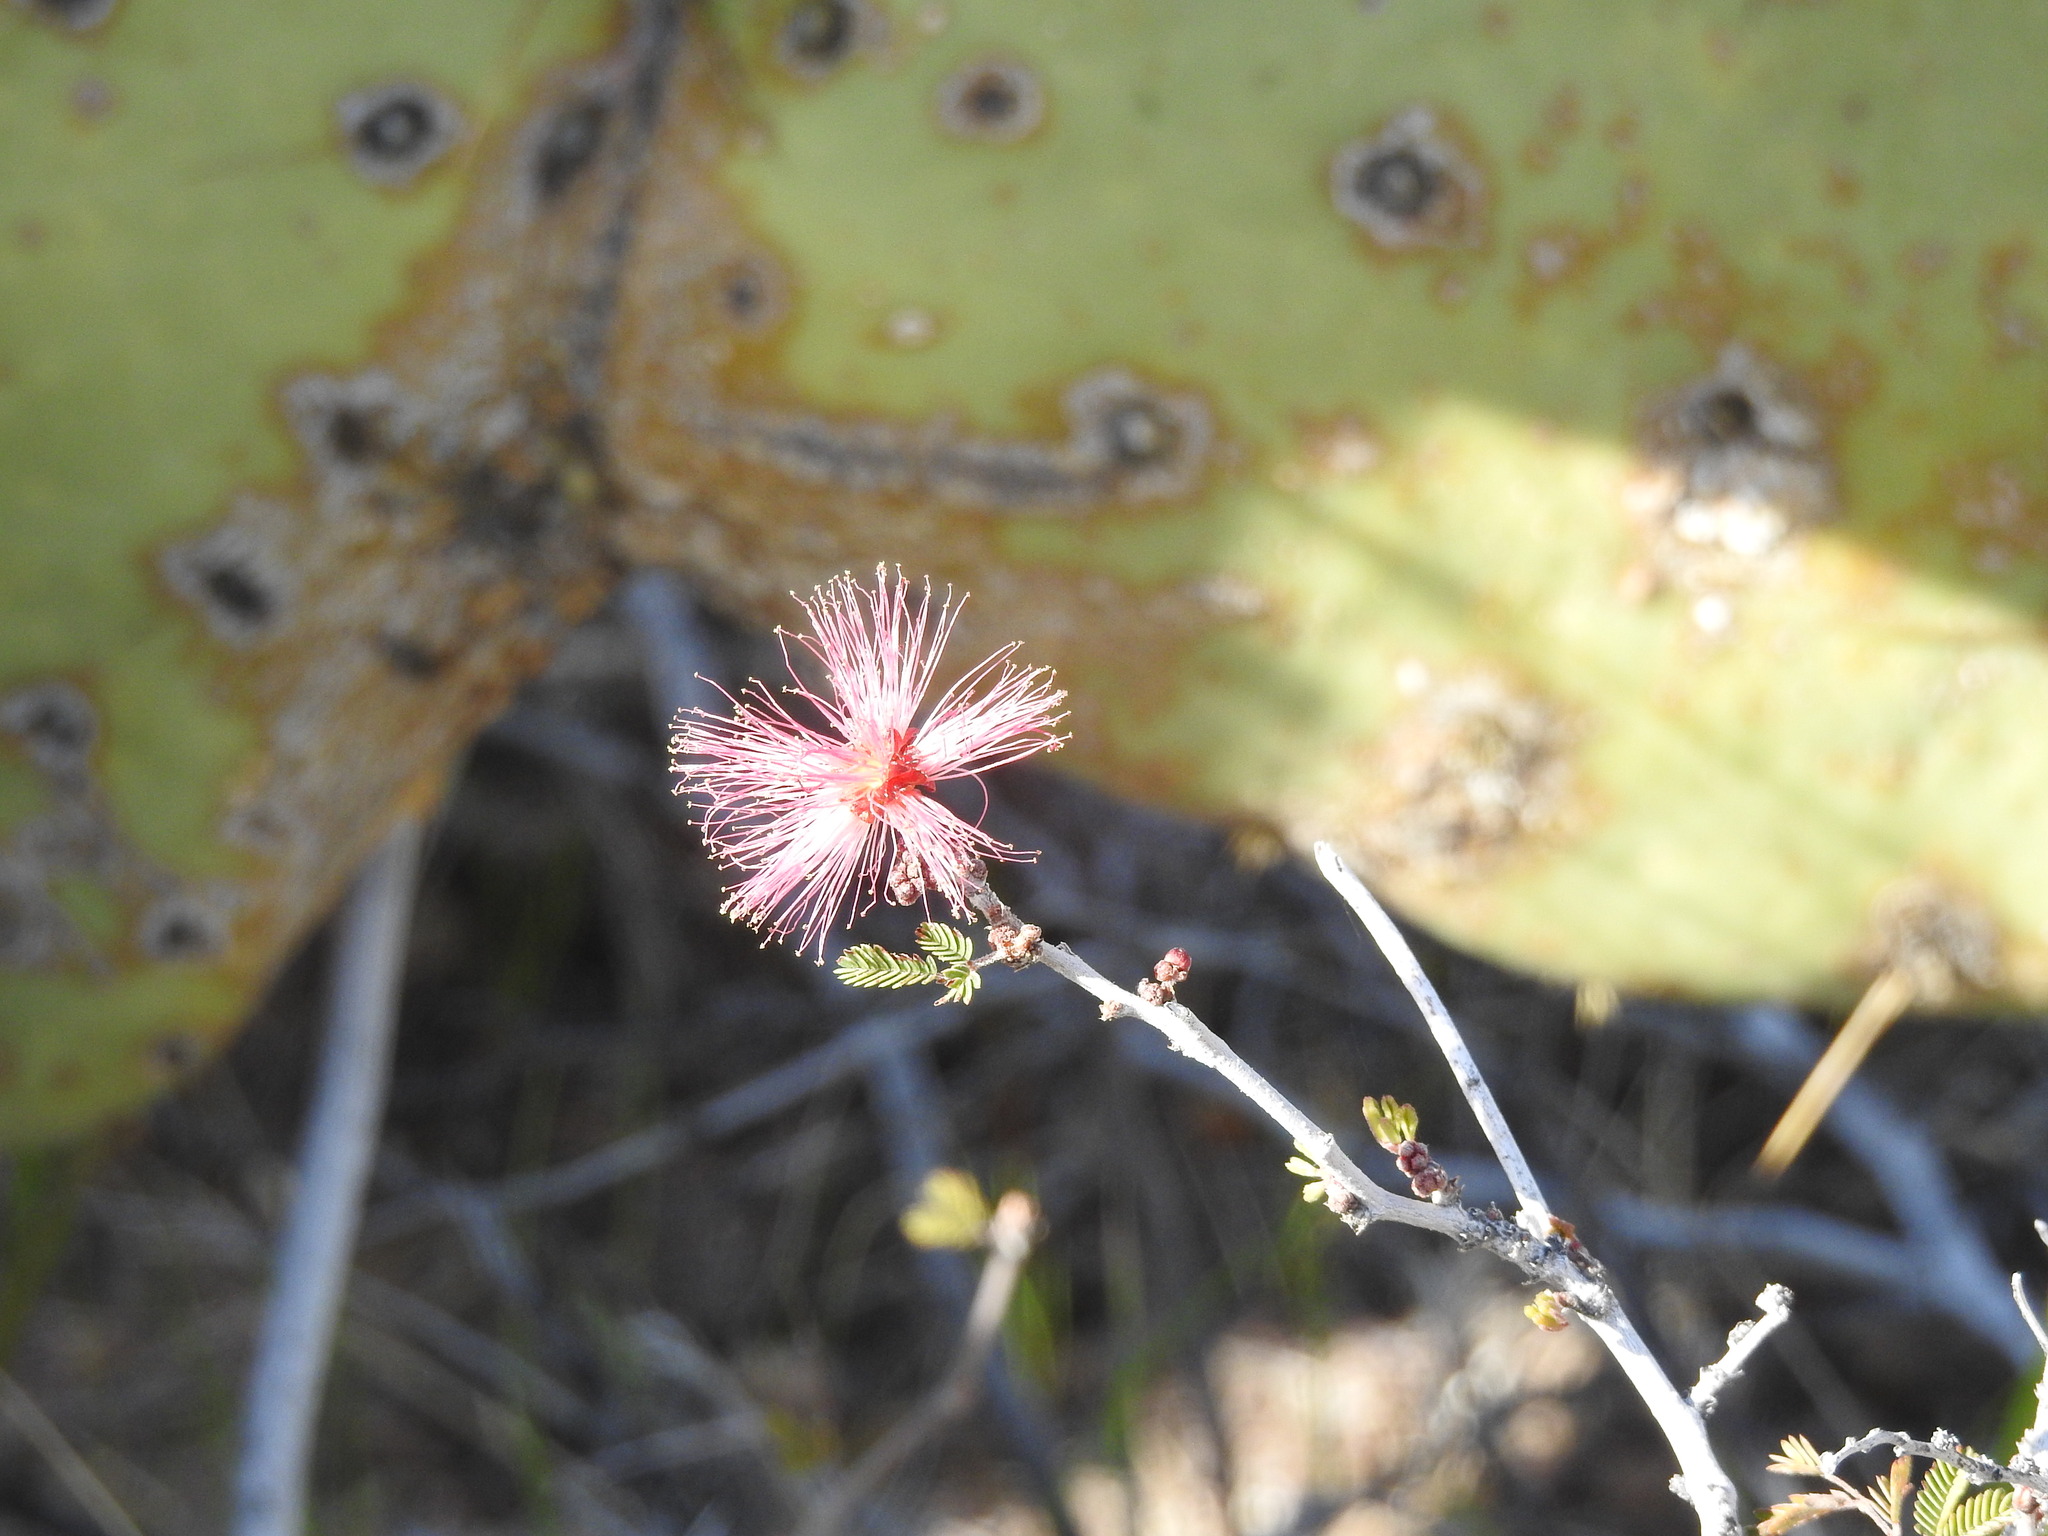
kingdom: Plantae
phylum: Tracheophyta
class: Magnoliopsida
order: Fabales
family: Fabaceae
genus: Calliandra
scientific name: Calliandra eriophylla
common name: Fairy-duster
